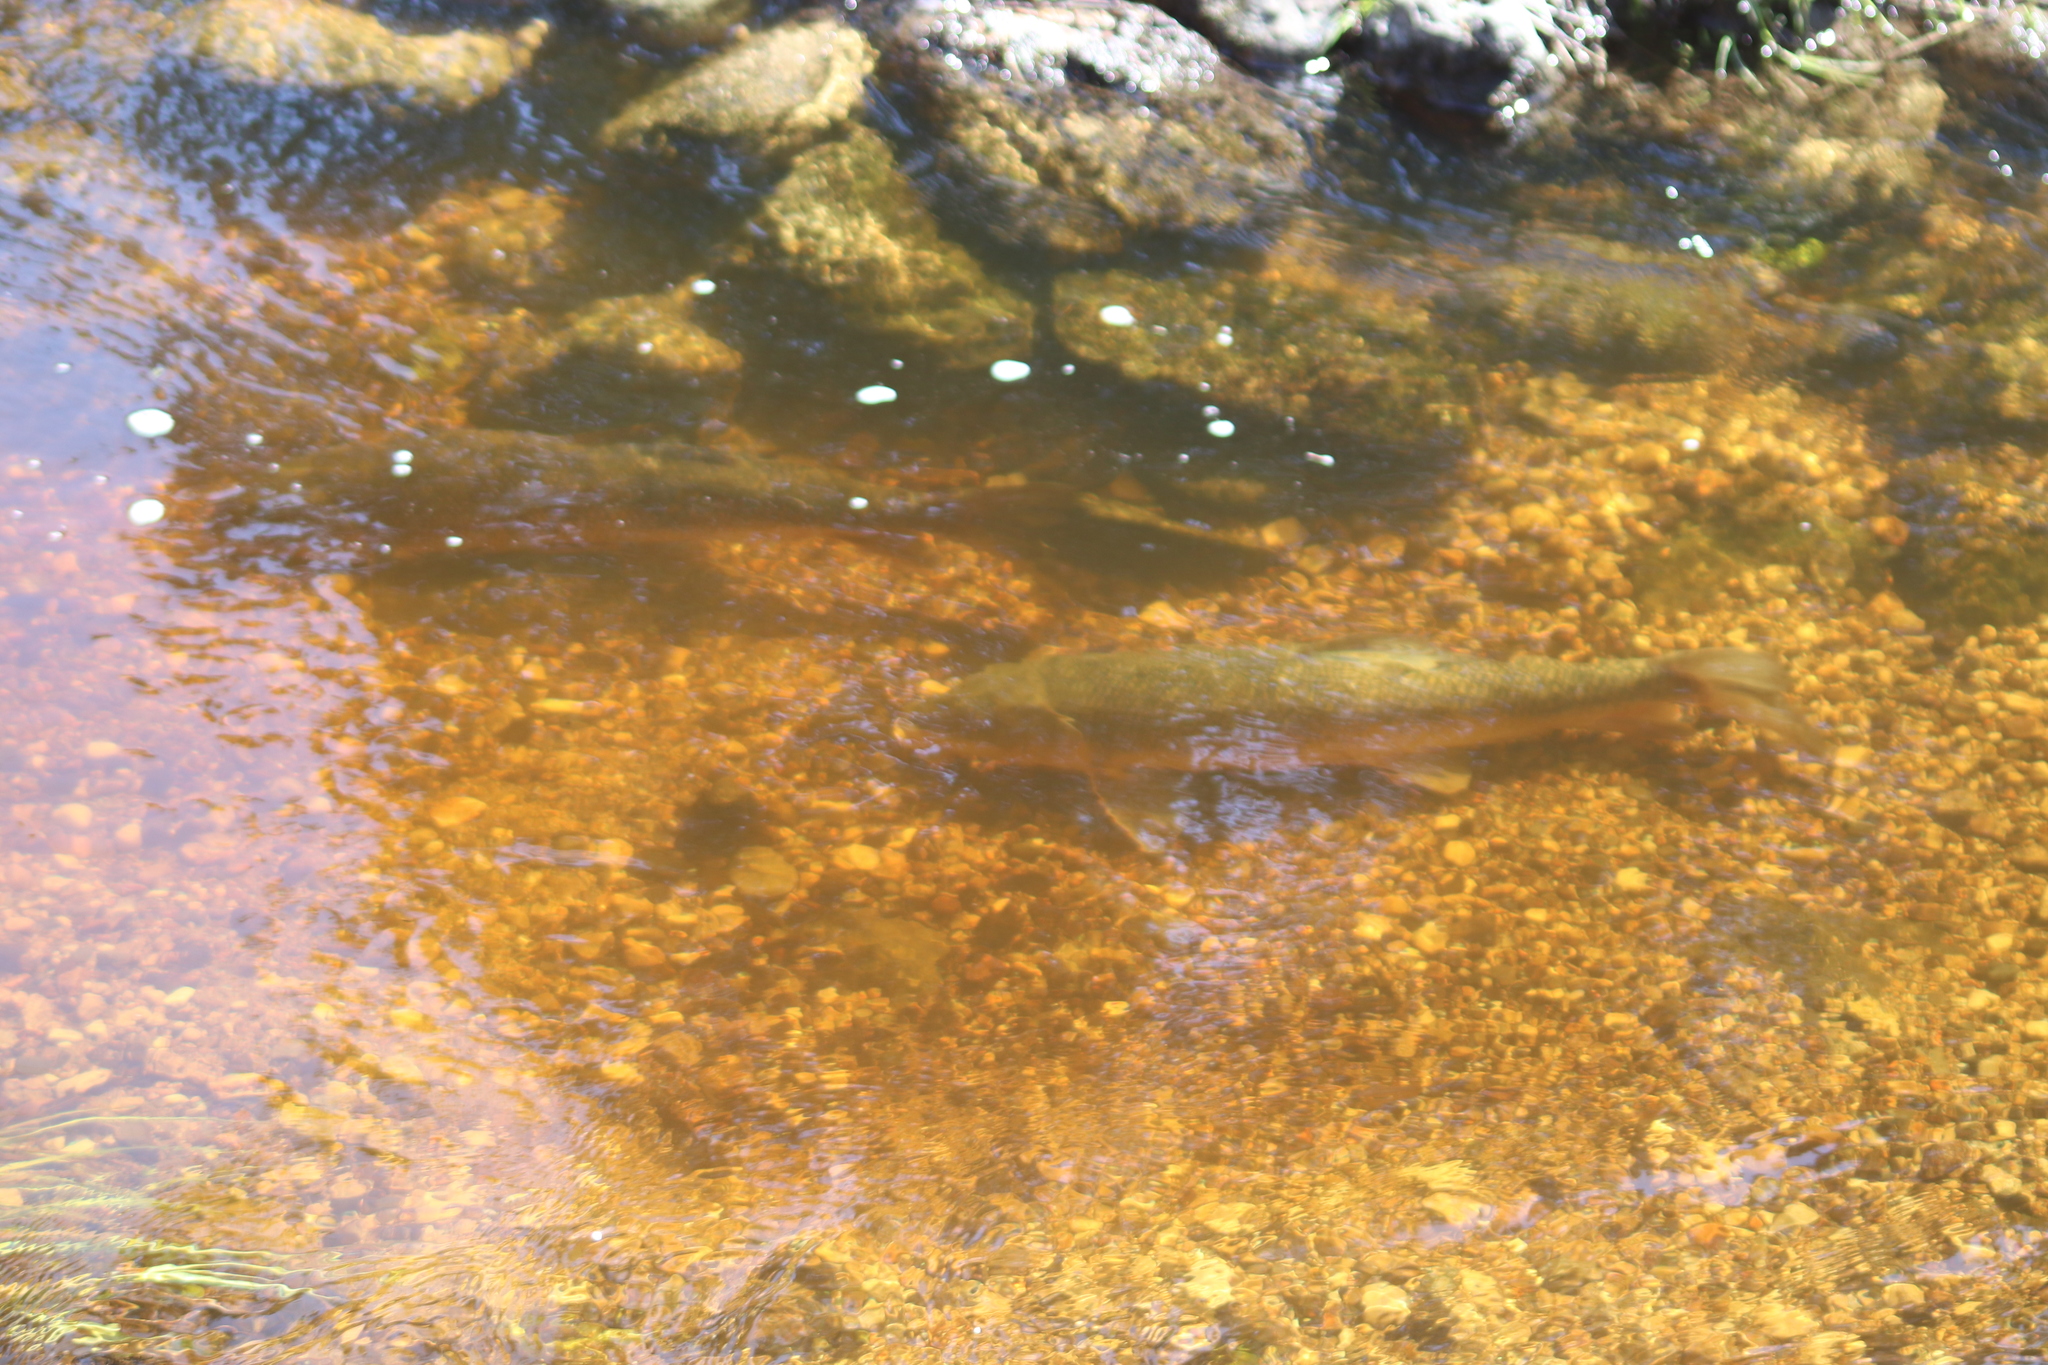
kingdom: Animalia
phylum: Chordata
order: Cypriniformes
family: Catostomidae
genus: Catostomus
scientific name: Catostomus commersonii
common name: White sucker
